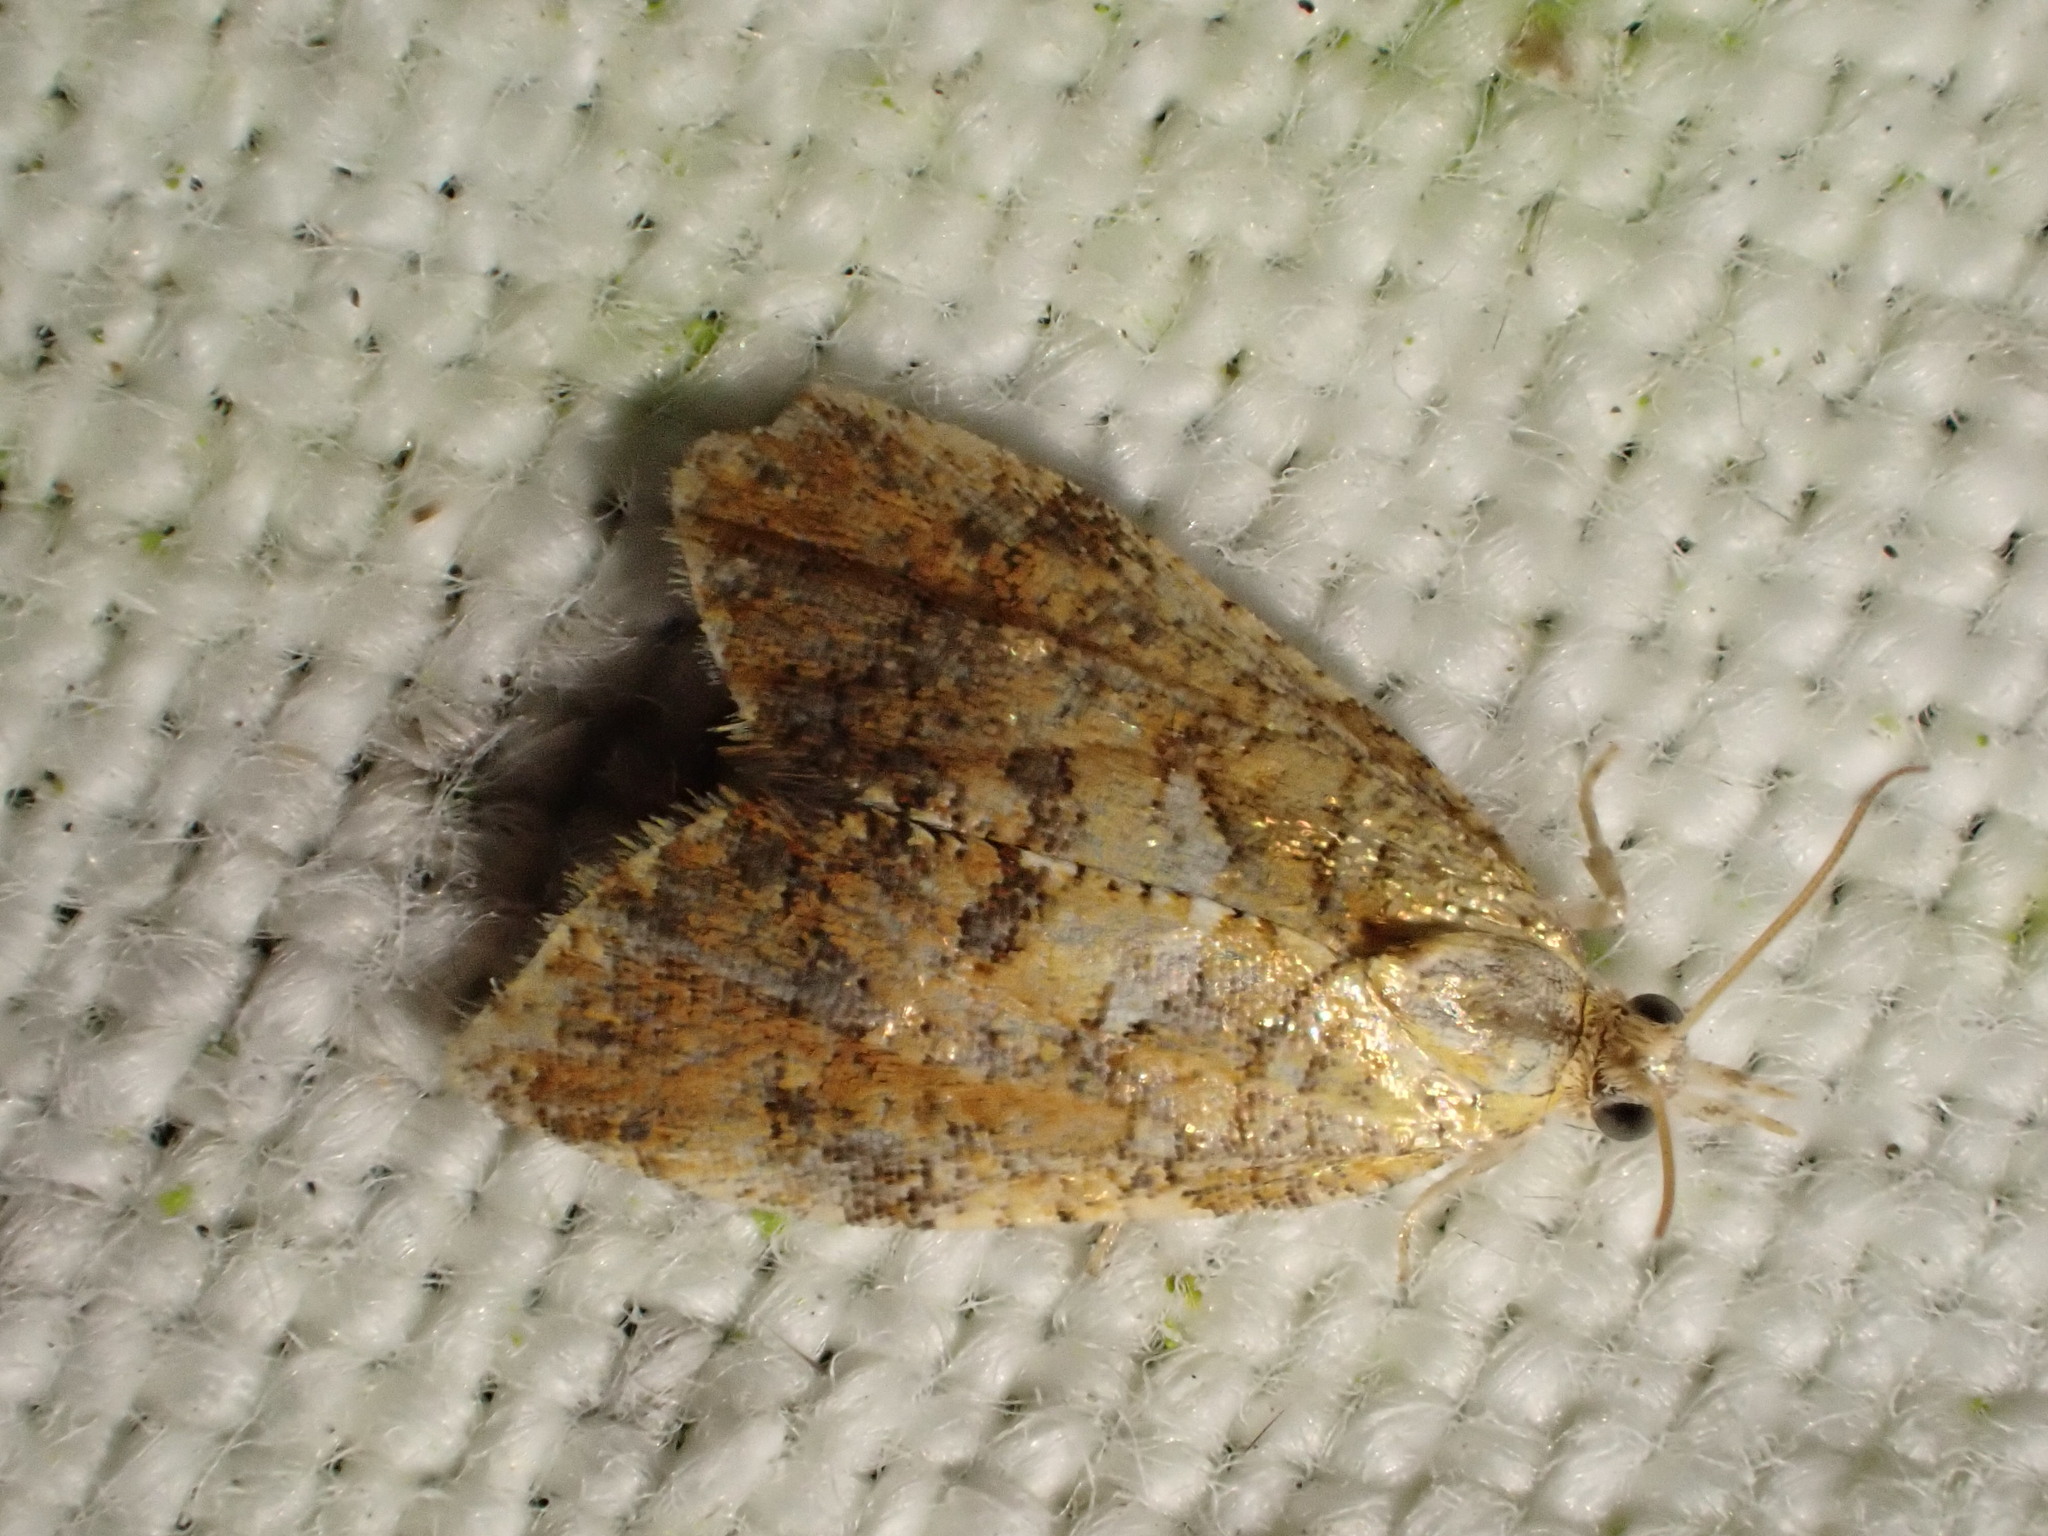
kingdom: Animalia
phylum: Arthropoda
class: Insecta
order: Lepidoptera
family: Tortricidae
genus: Pseudargyrotoza
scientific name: Pseudargyrotoza conwagana
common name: Yellow-spot twist
